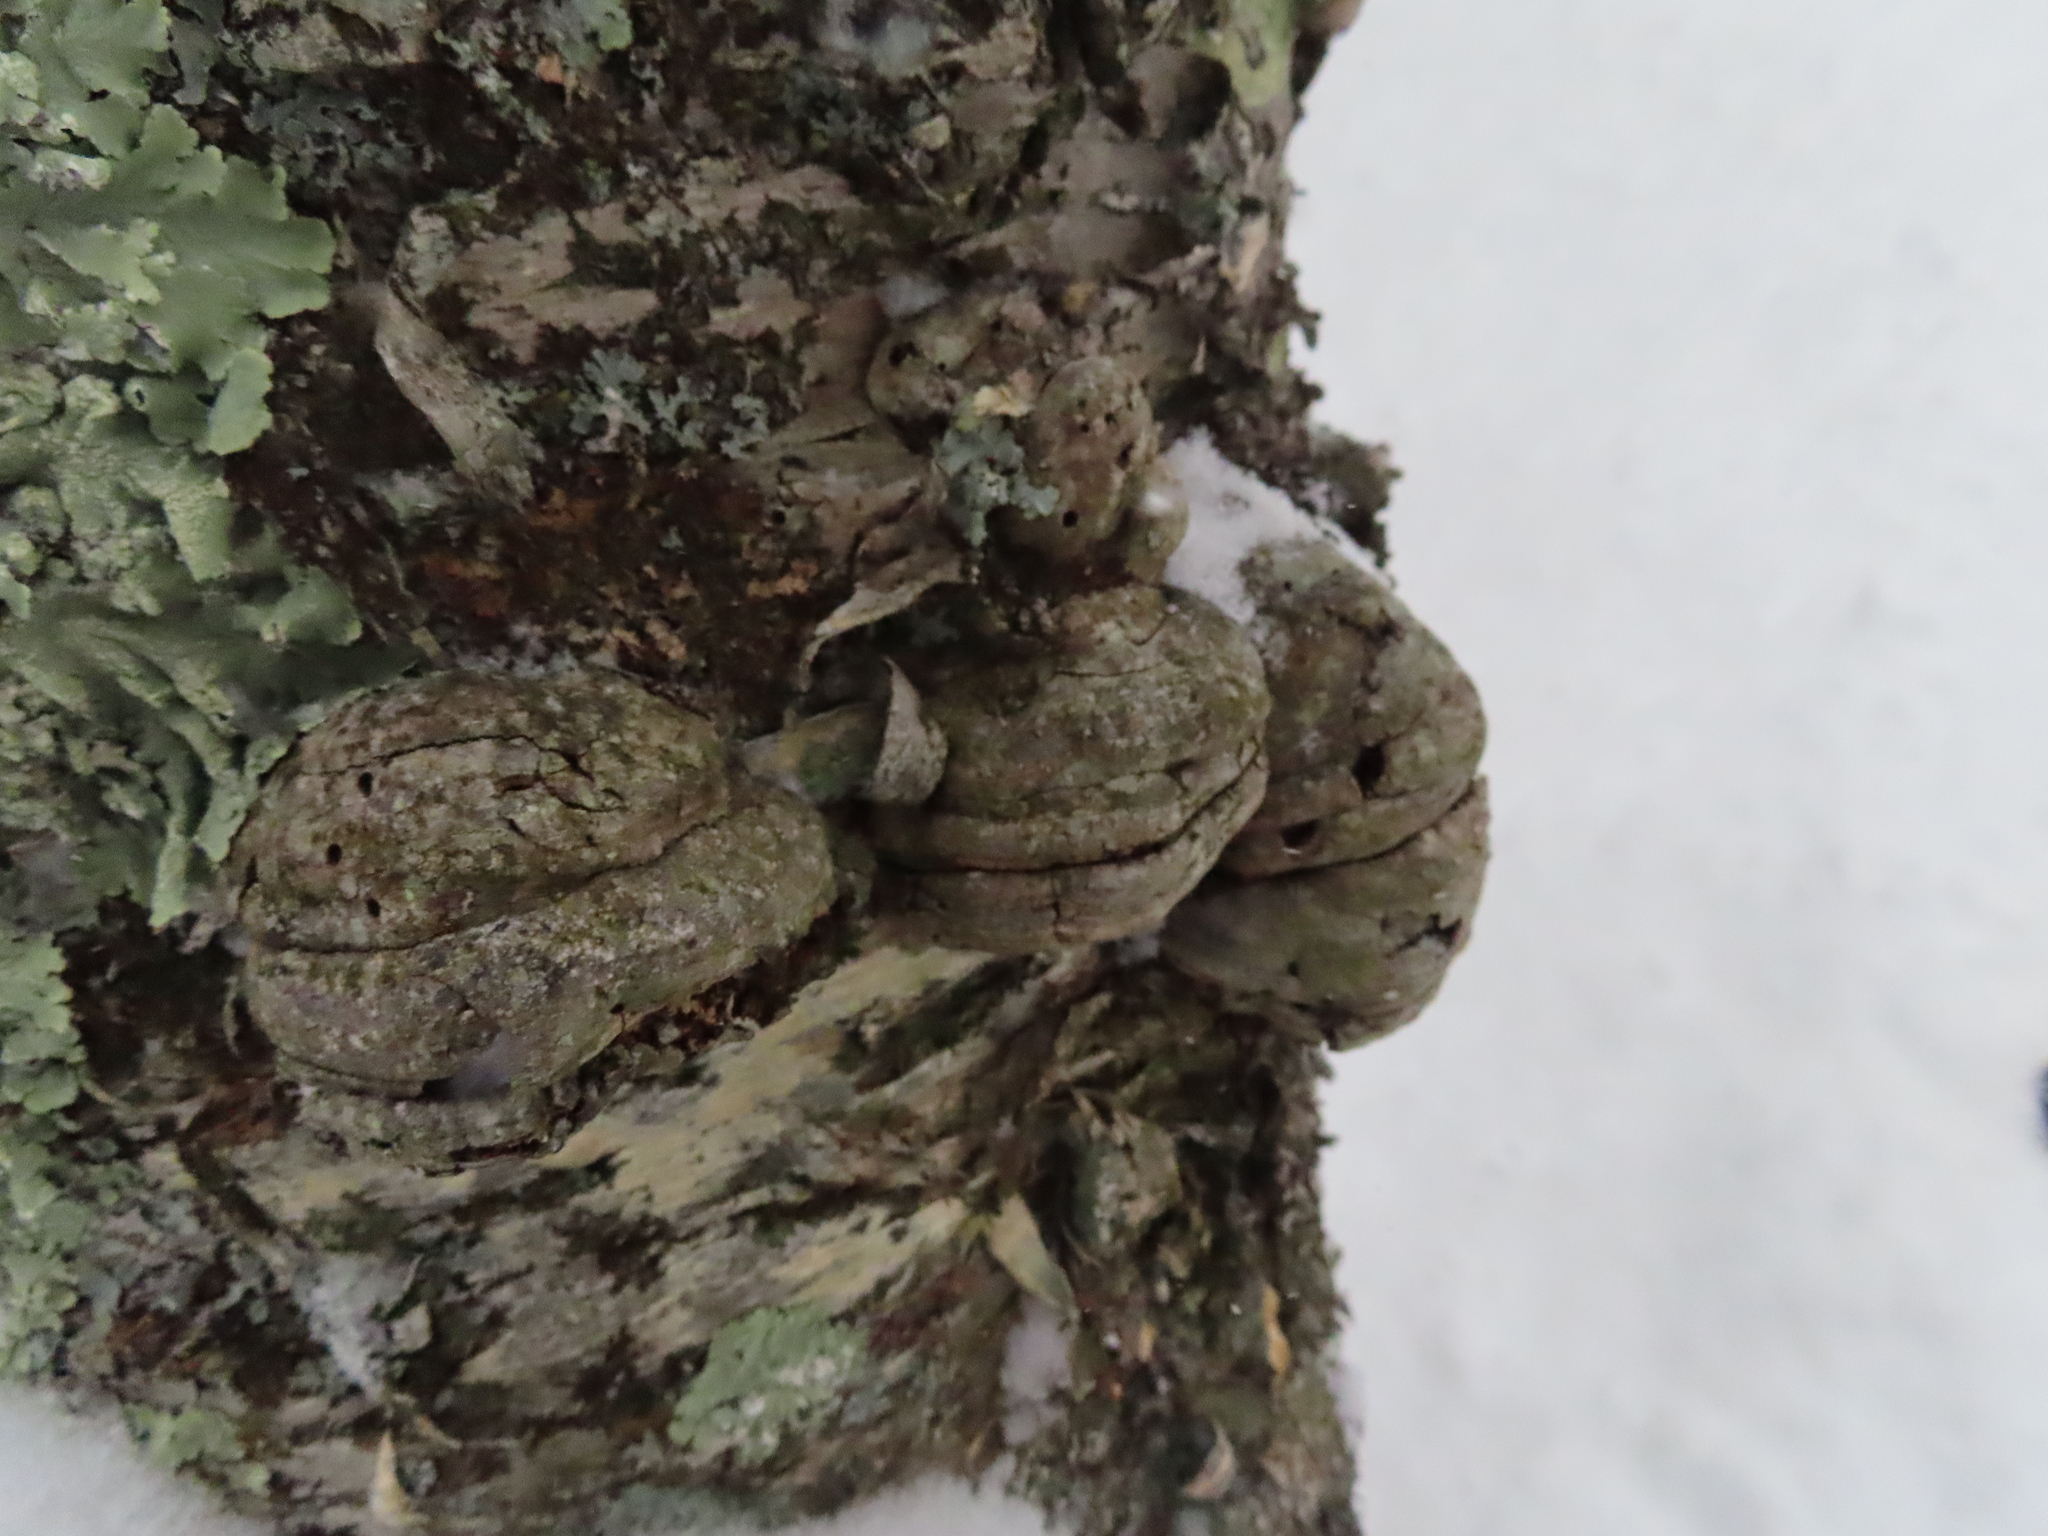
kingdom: Fungi
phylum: Basidiomycota
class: Agaricomycetes
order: Polyporales
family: Polyporaceae
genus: Fomes
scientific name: Fomes fomentarius
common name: Hoof fungus
